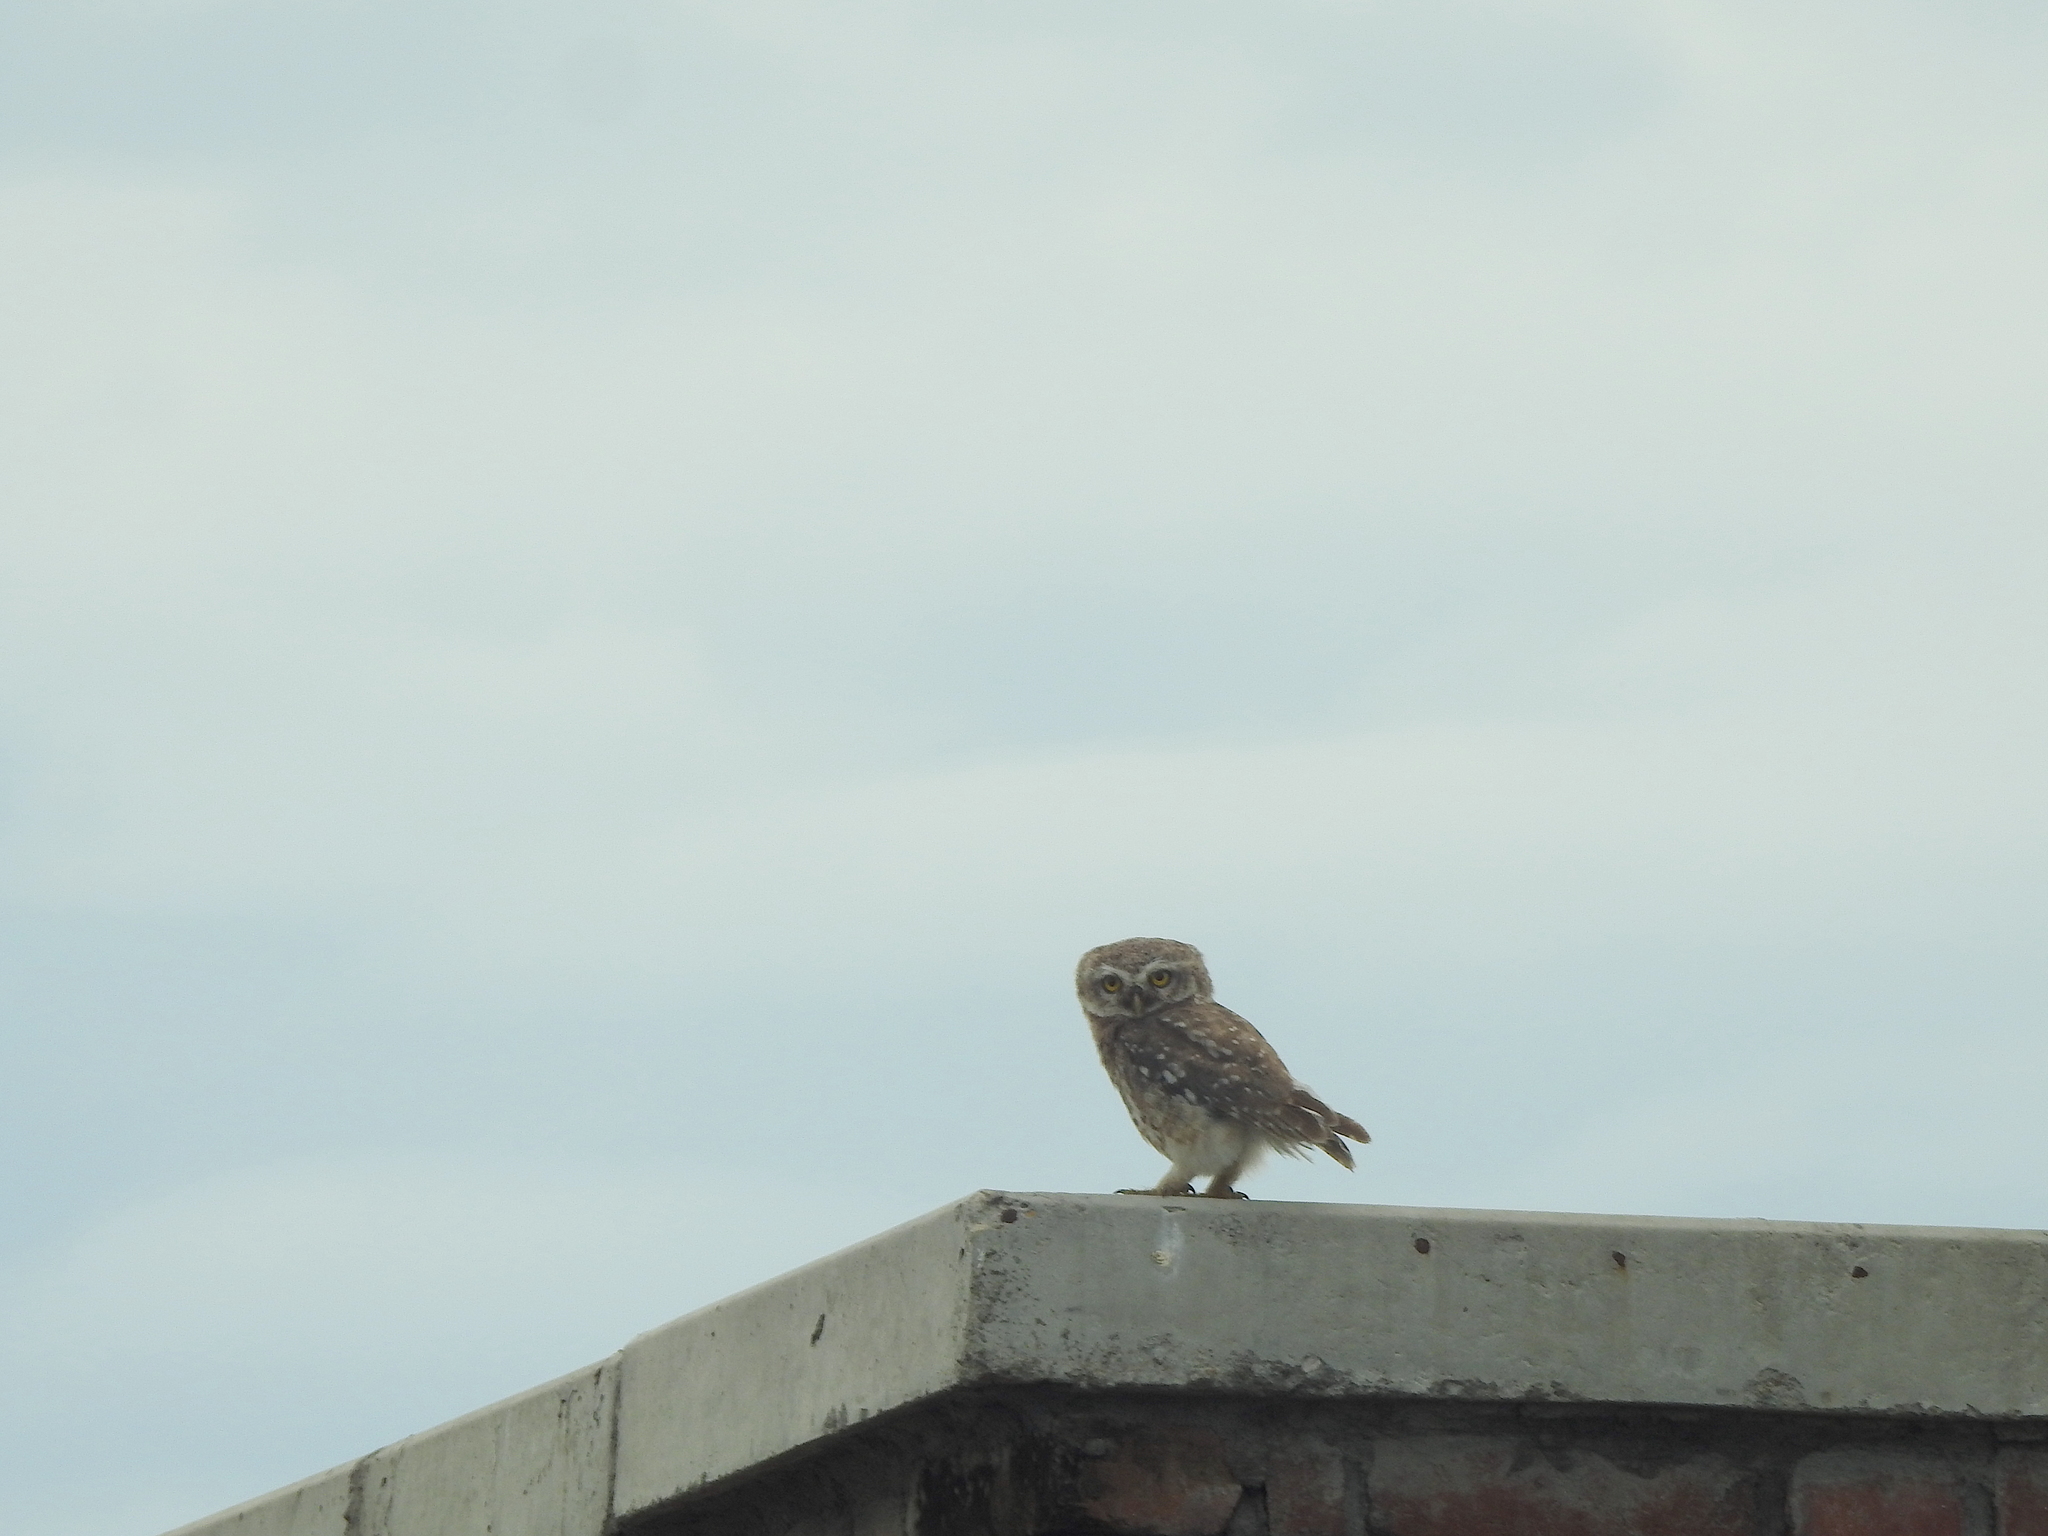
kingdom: Animalia
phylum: Chordata
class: Aves
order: Strigiformes
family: Strigidae
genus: Athene
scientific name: Athene brama
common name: Spotted owlet
